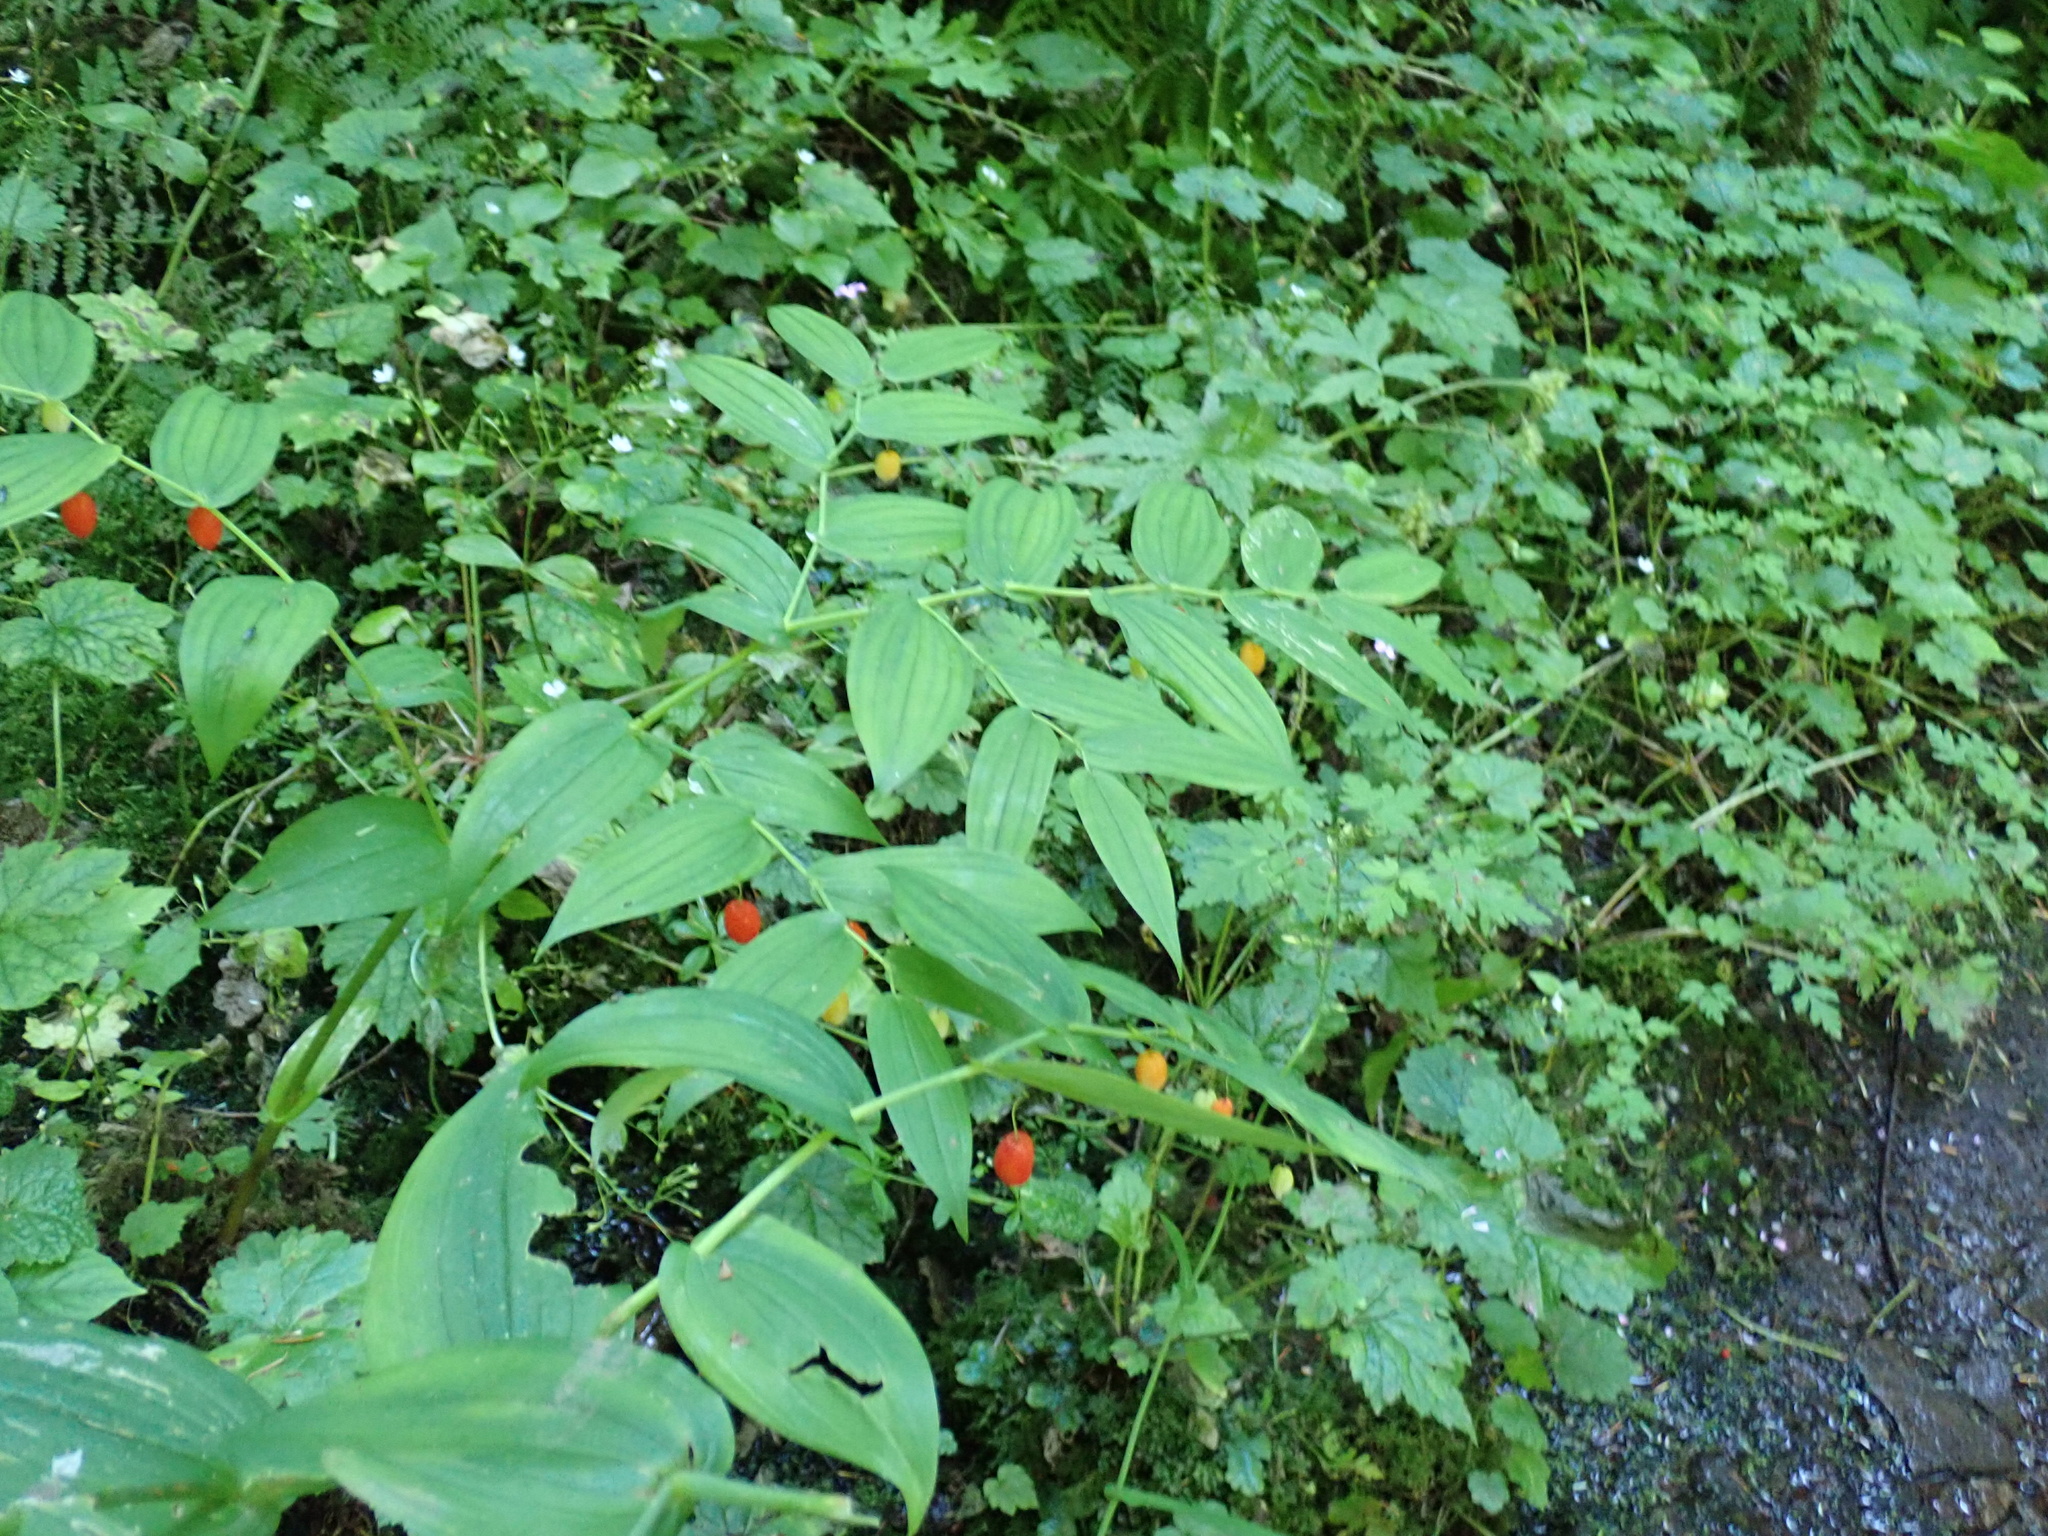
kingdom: Plantae
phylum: Tracheophyta
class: Liliopsida
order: Liliales
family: Liliaceae
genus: Streptopus
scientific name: Streptopus amplexifolius
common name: Clasp twisted stalk
